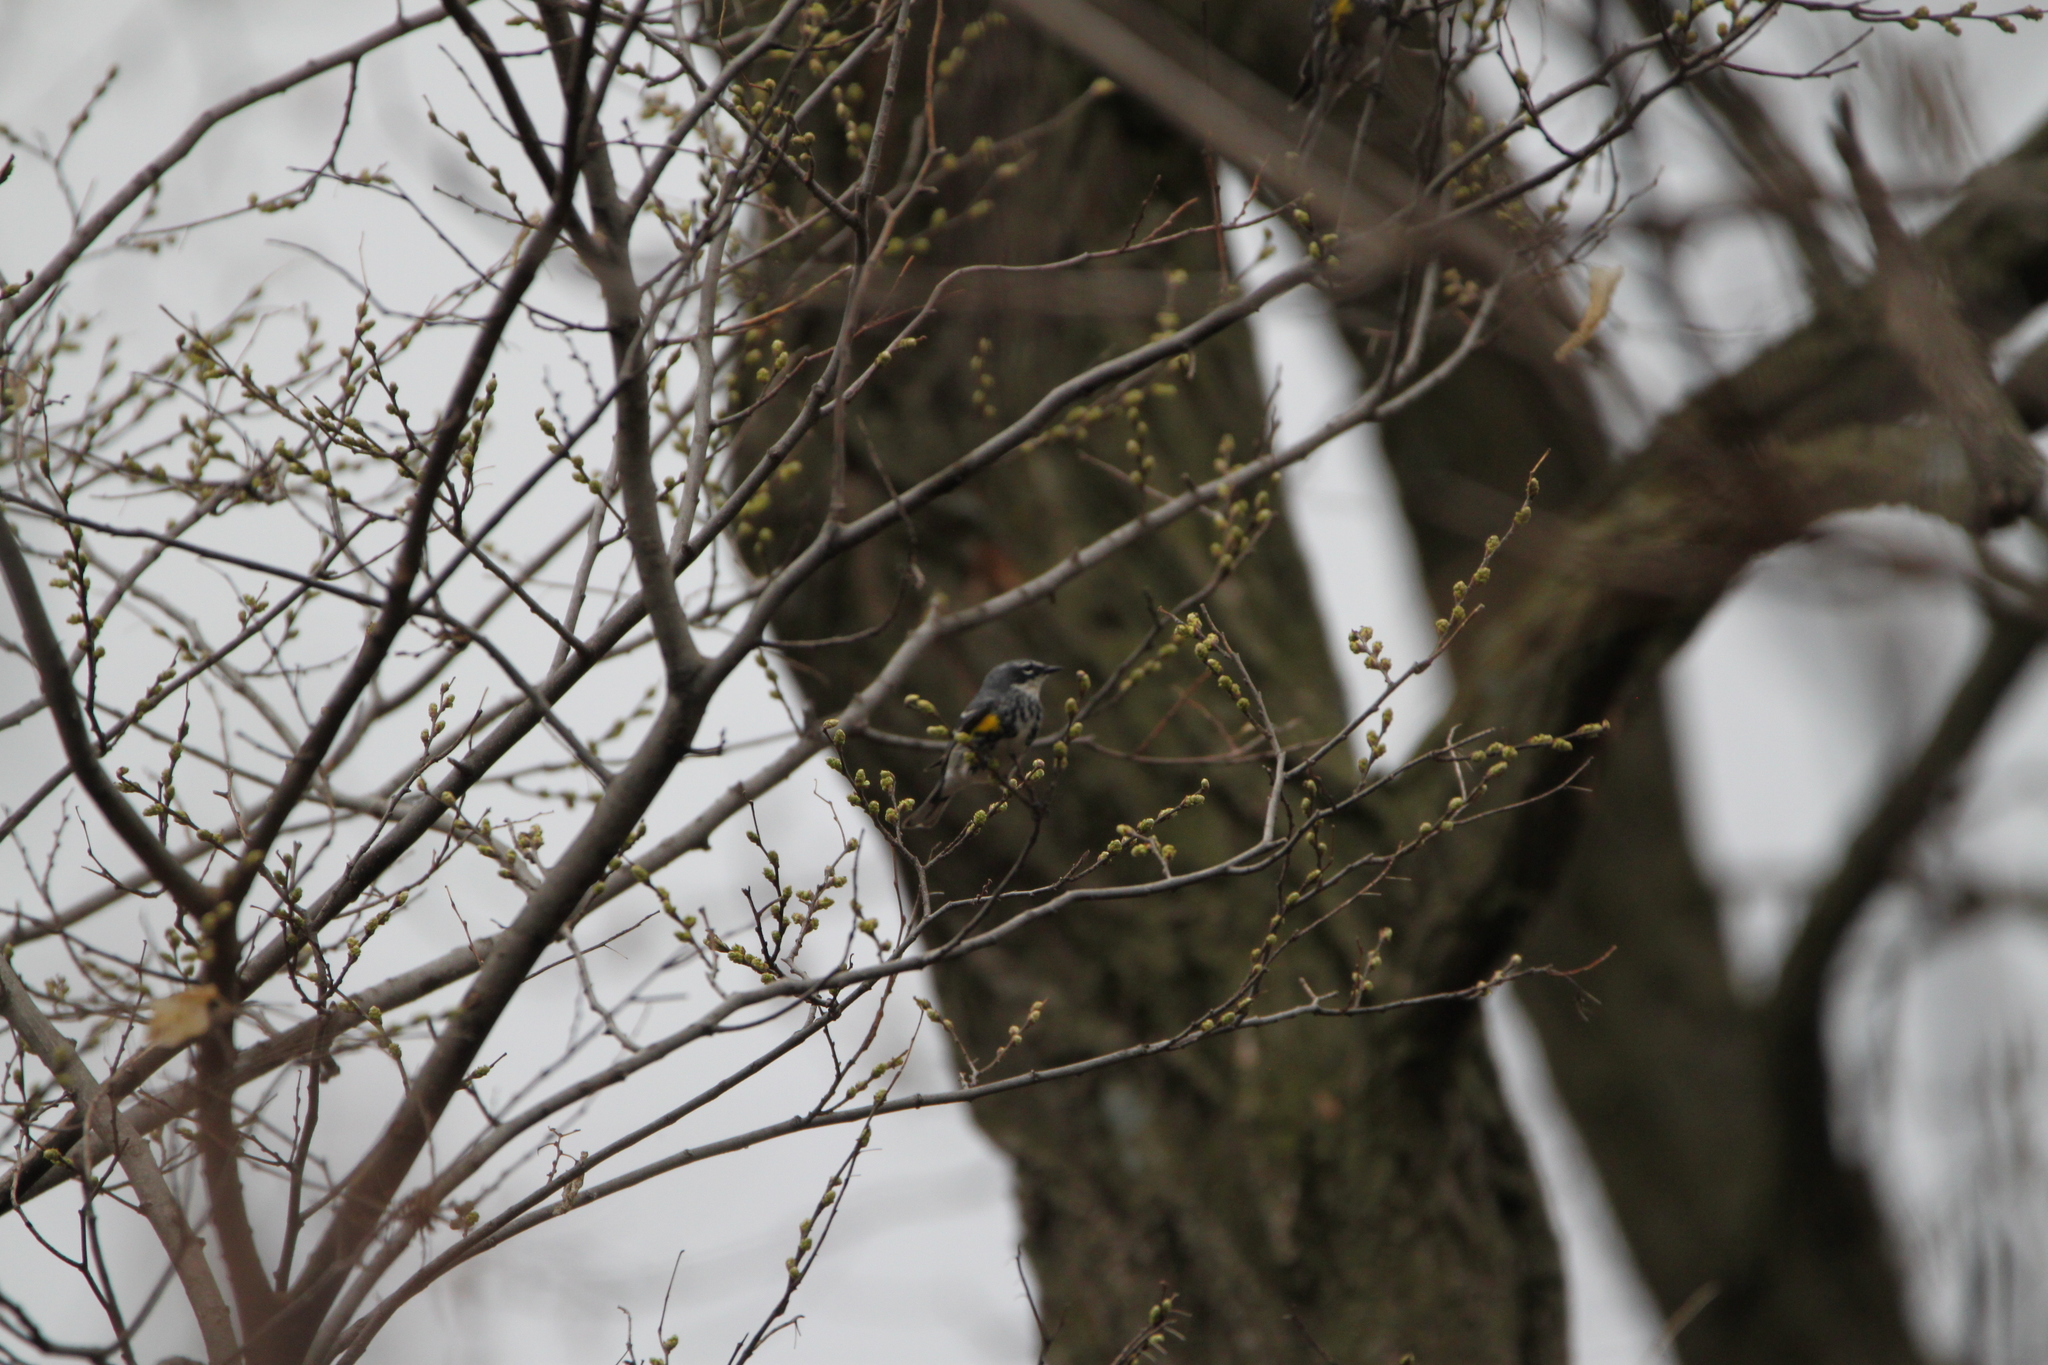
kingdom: Animalia
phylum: Chordata
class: Aves
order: Passeriformes
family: Parulidae
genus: Setophaga
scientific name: Setophaga coronata
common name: Myrtle warbler
